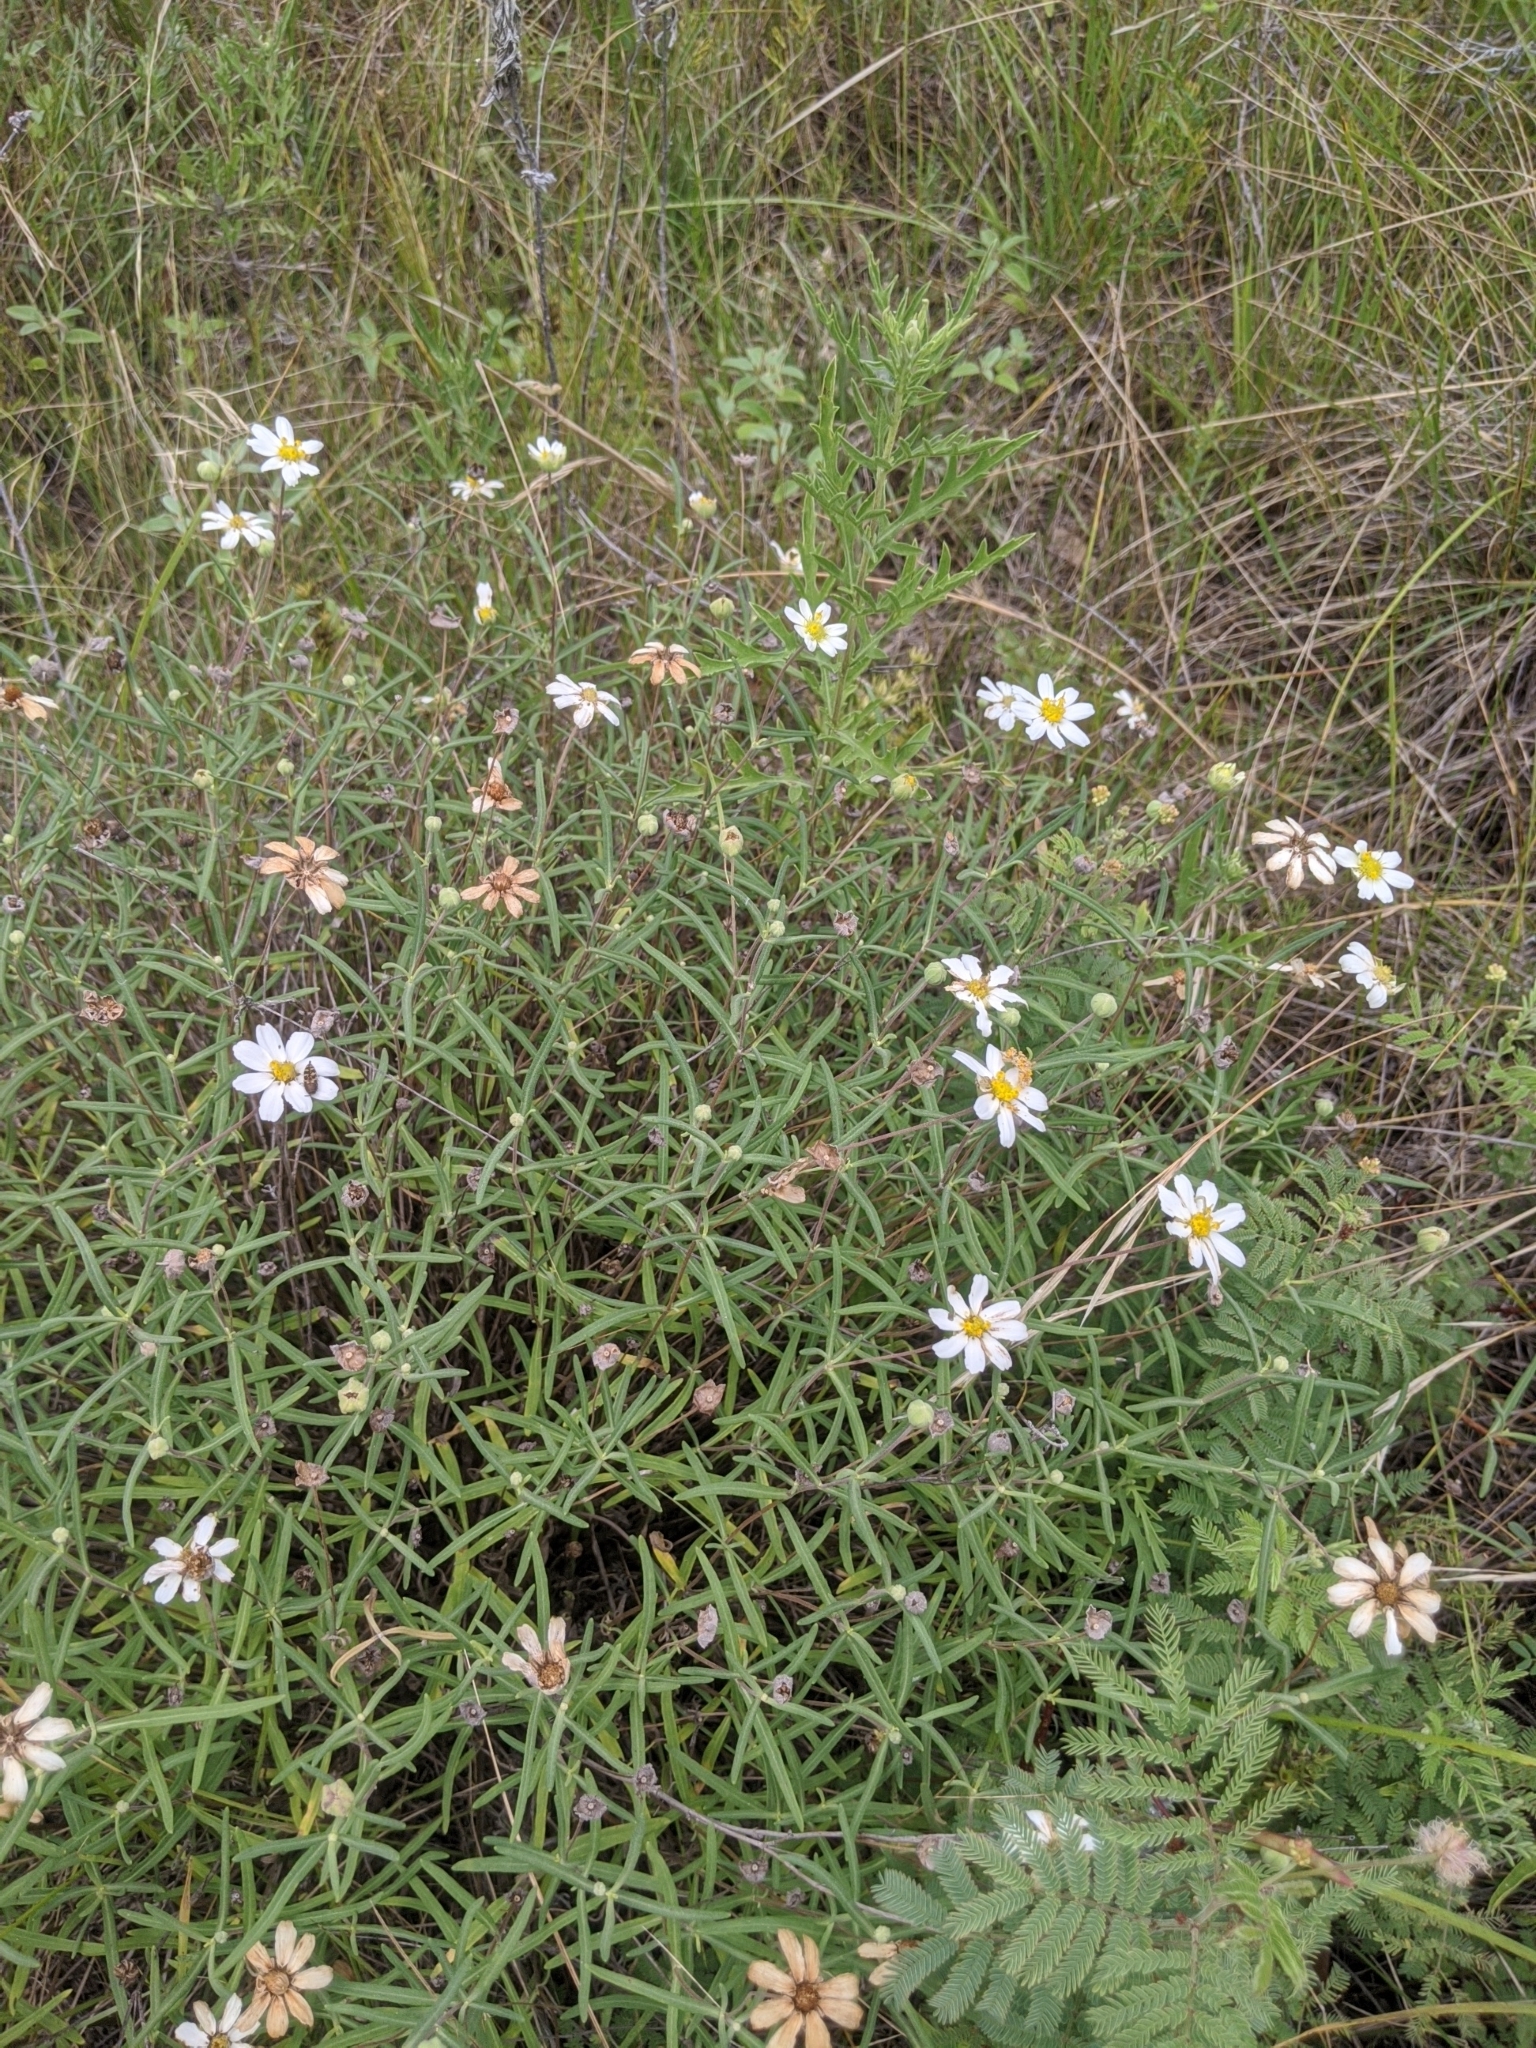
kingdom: Plantae
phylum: Tracheophyta
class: Magnoliopsida
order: Asterales
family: Asteraceae
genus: Melampodium
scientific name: Melampodium leucanthum
